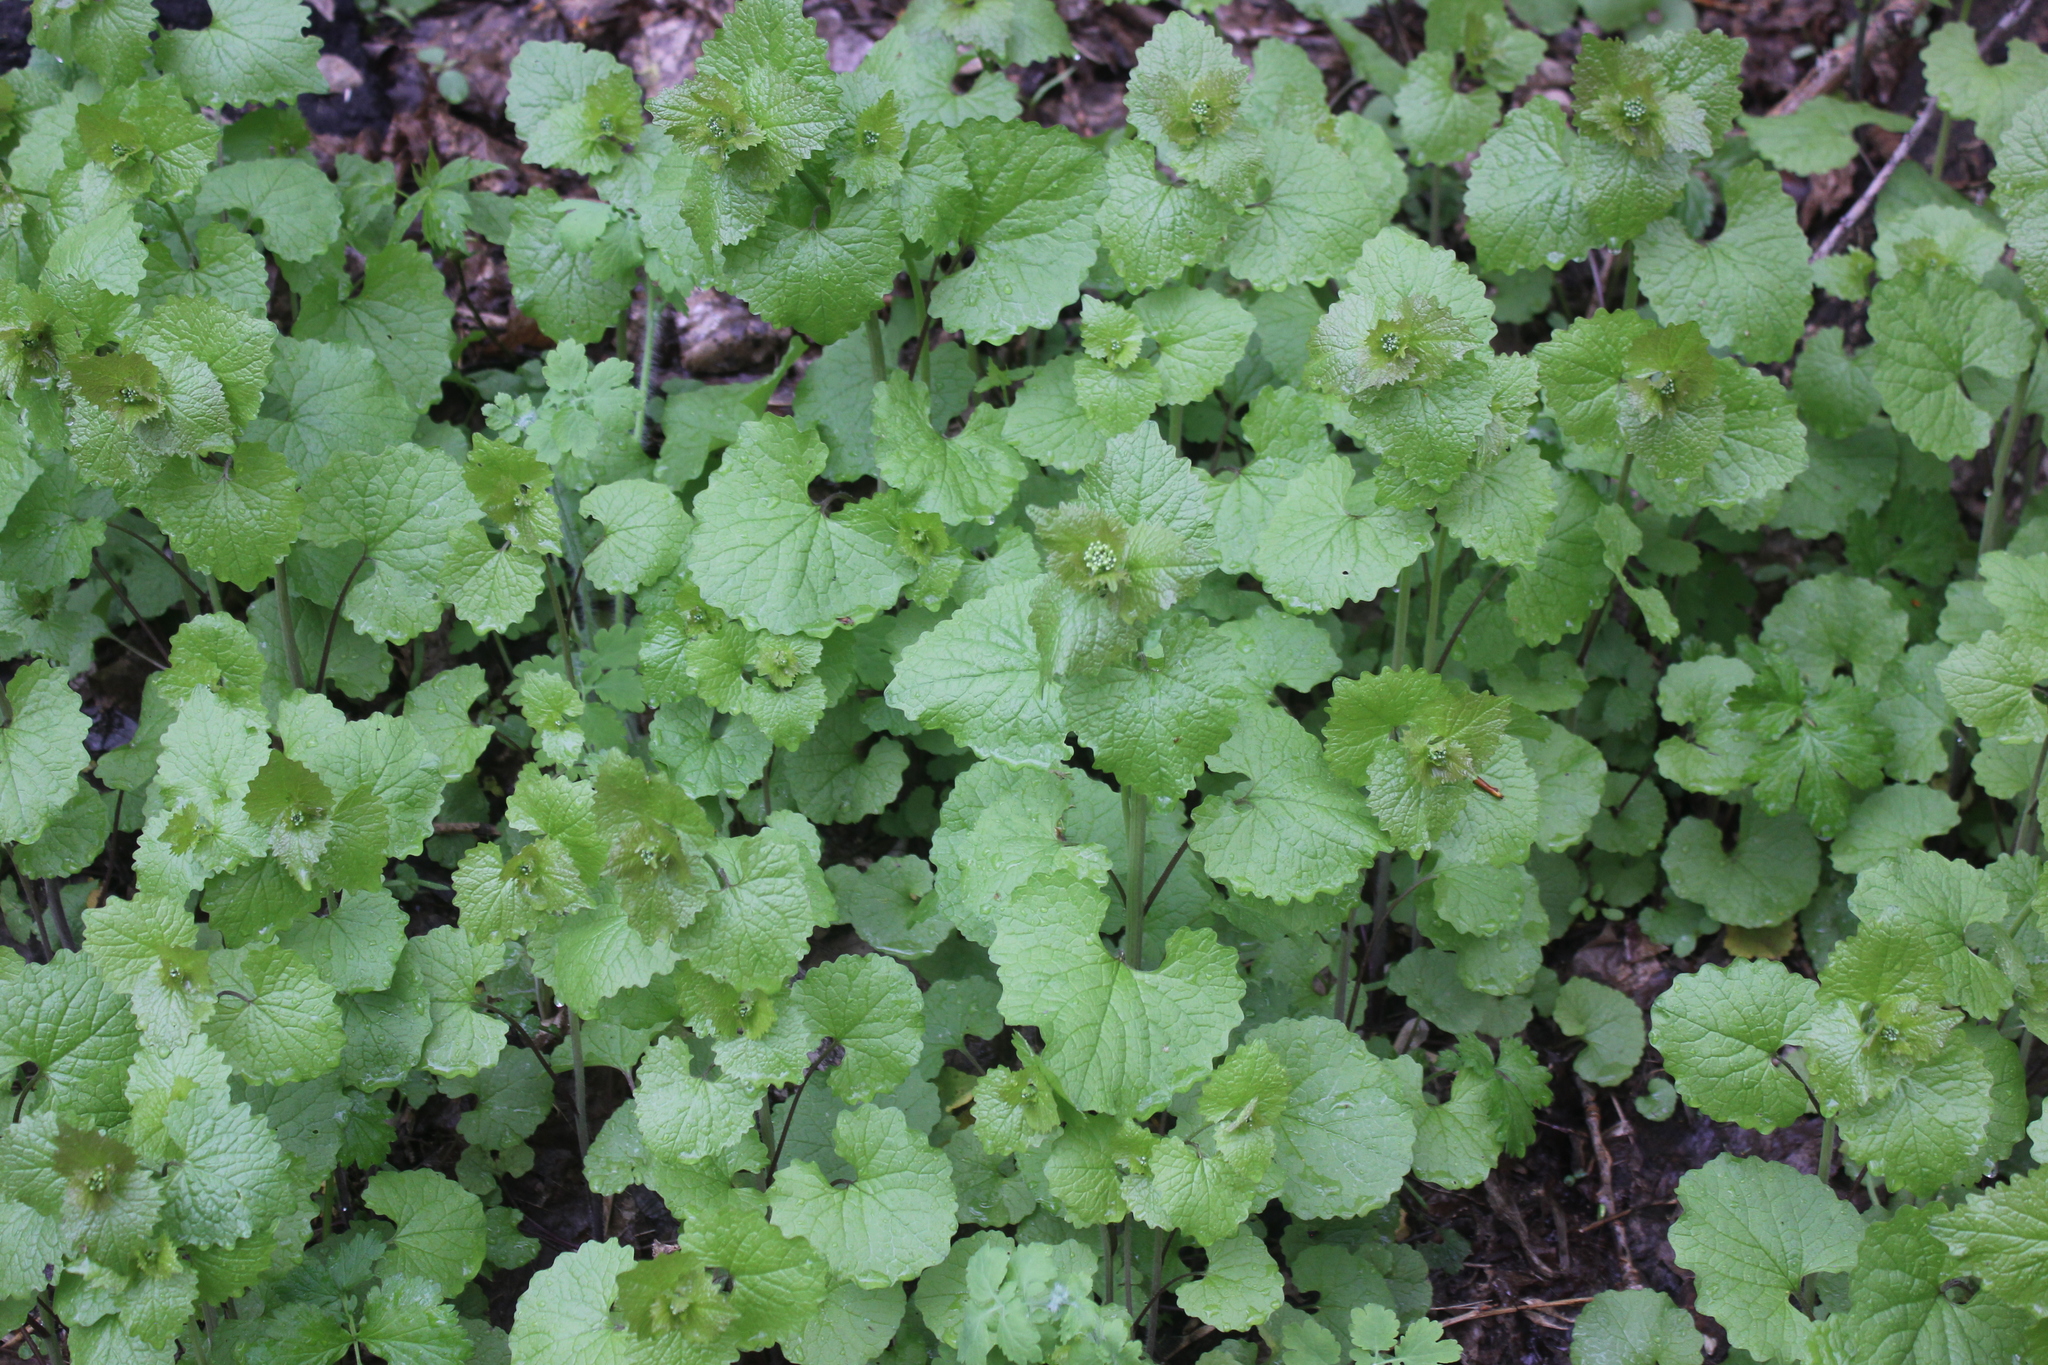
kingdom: Plantae
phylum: Tracheophyta
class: Magnoliopsida
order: Brassicales
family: Brassicaceae
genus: Alliaria
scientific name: Alliaria petiolata
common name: Garlic mustard
